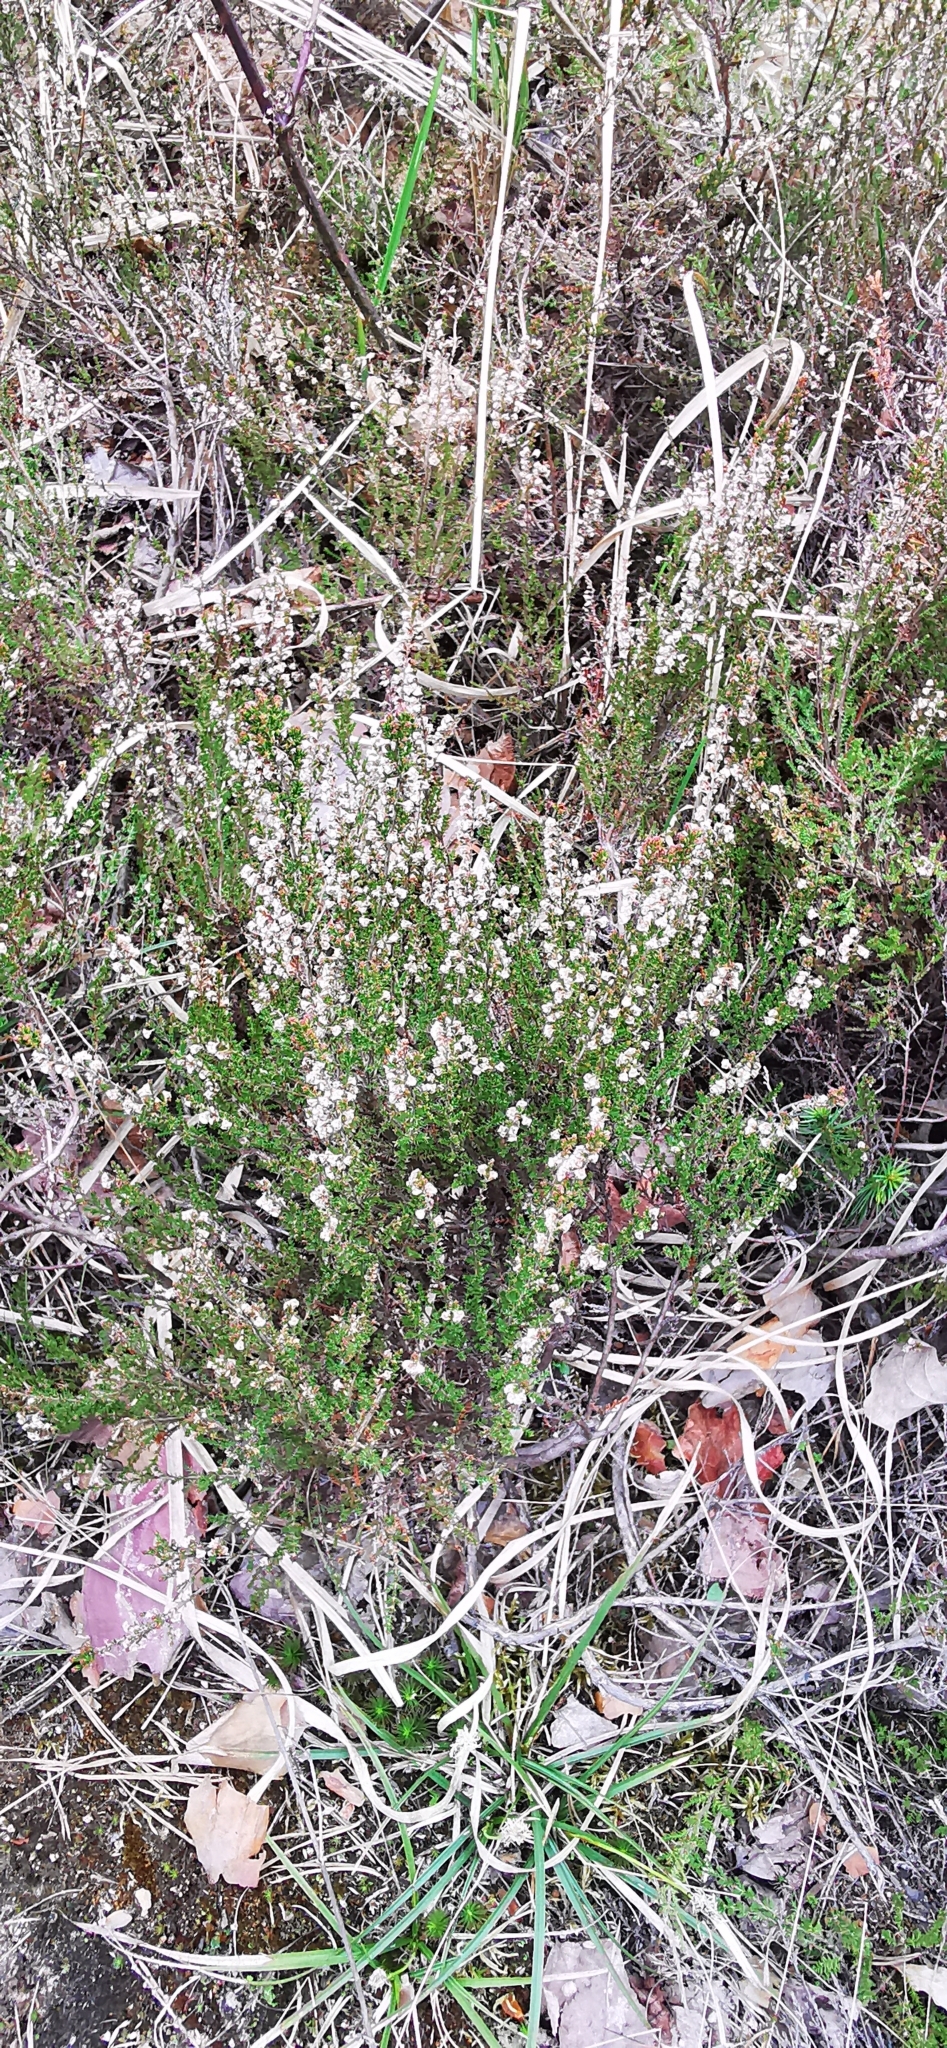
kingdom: Plantae
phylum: Tracheophyta
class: Magnoliopsida
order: Ericales
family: Ericaceae
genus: Calluna
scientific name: Calluna vulgaris
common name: Heather
